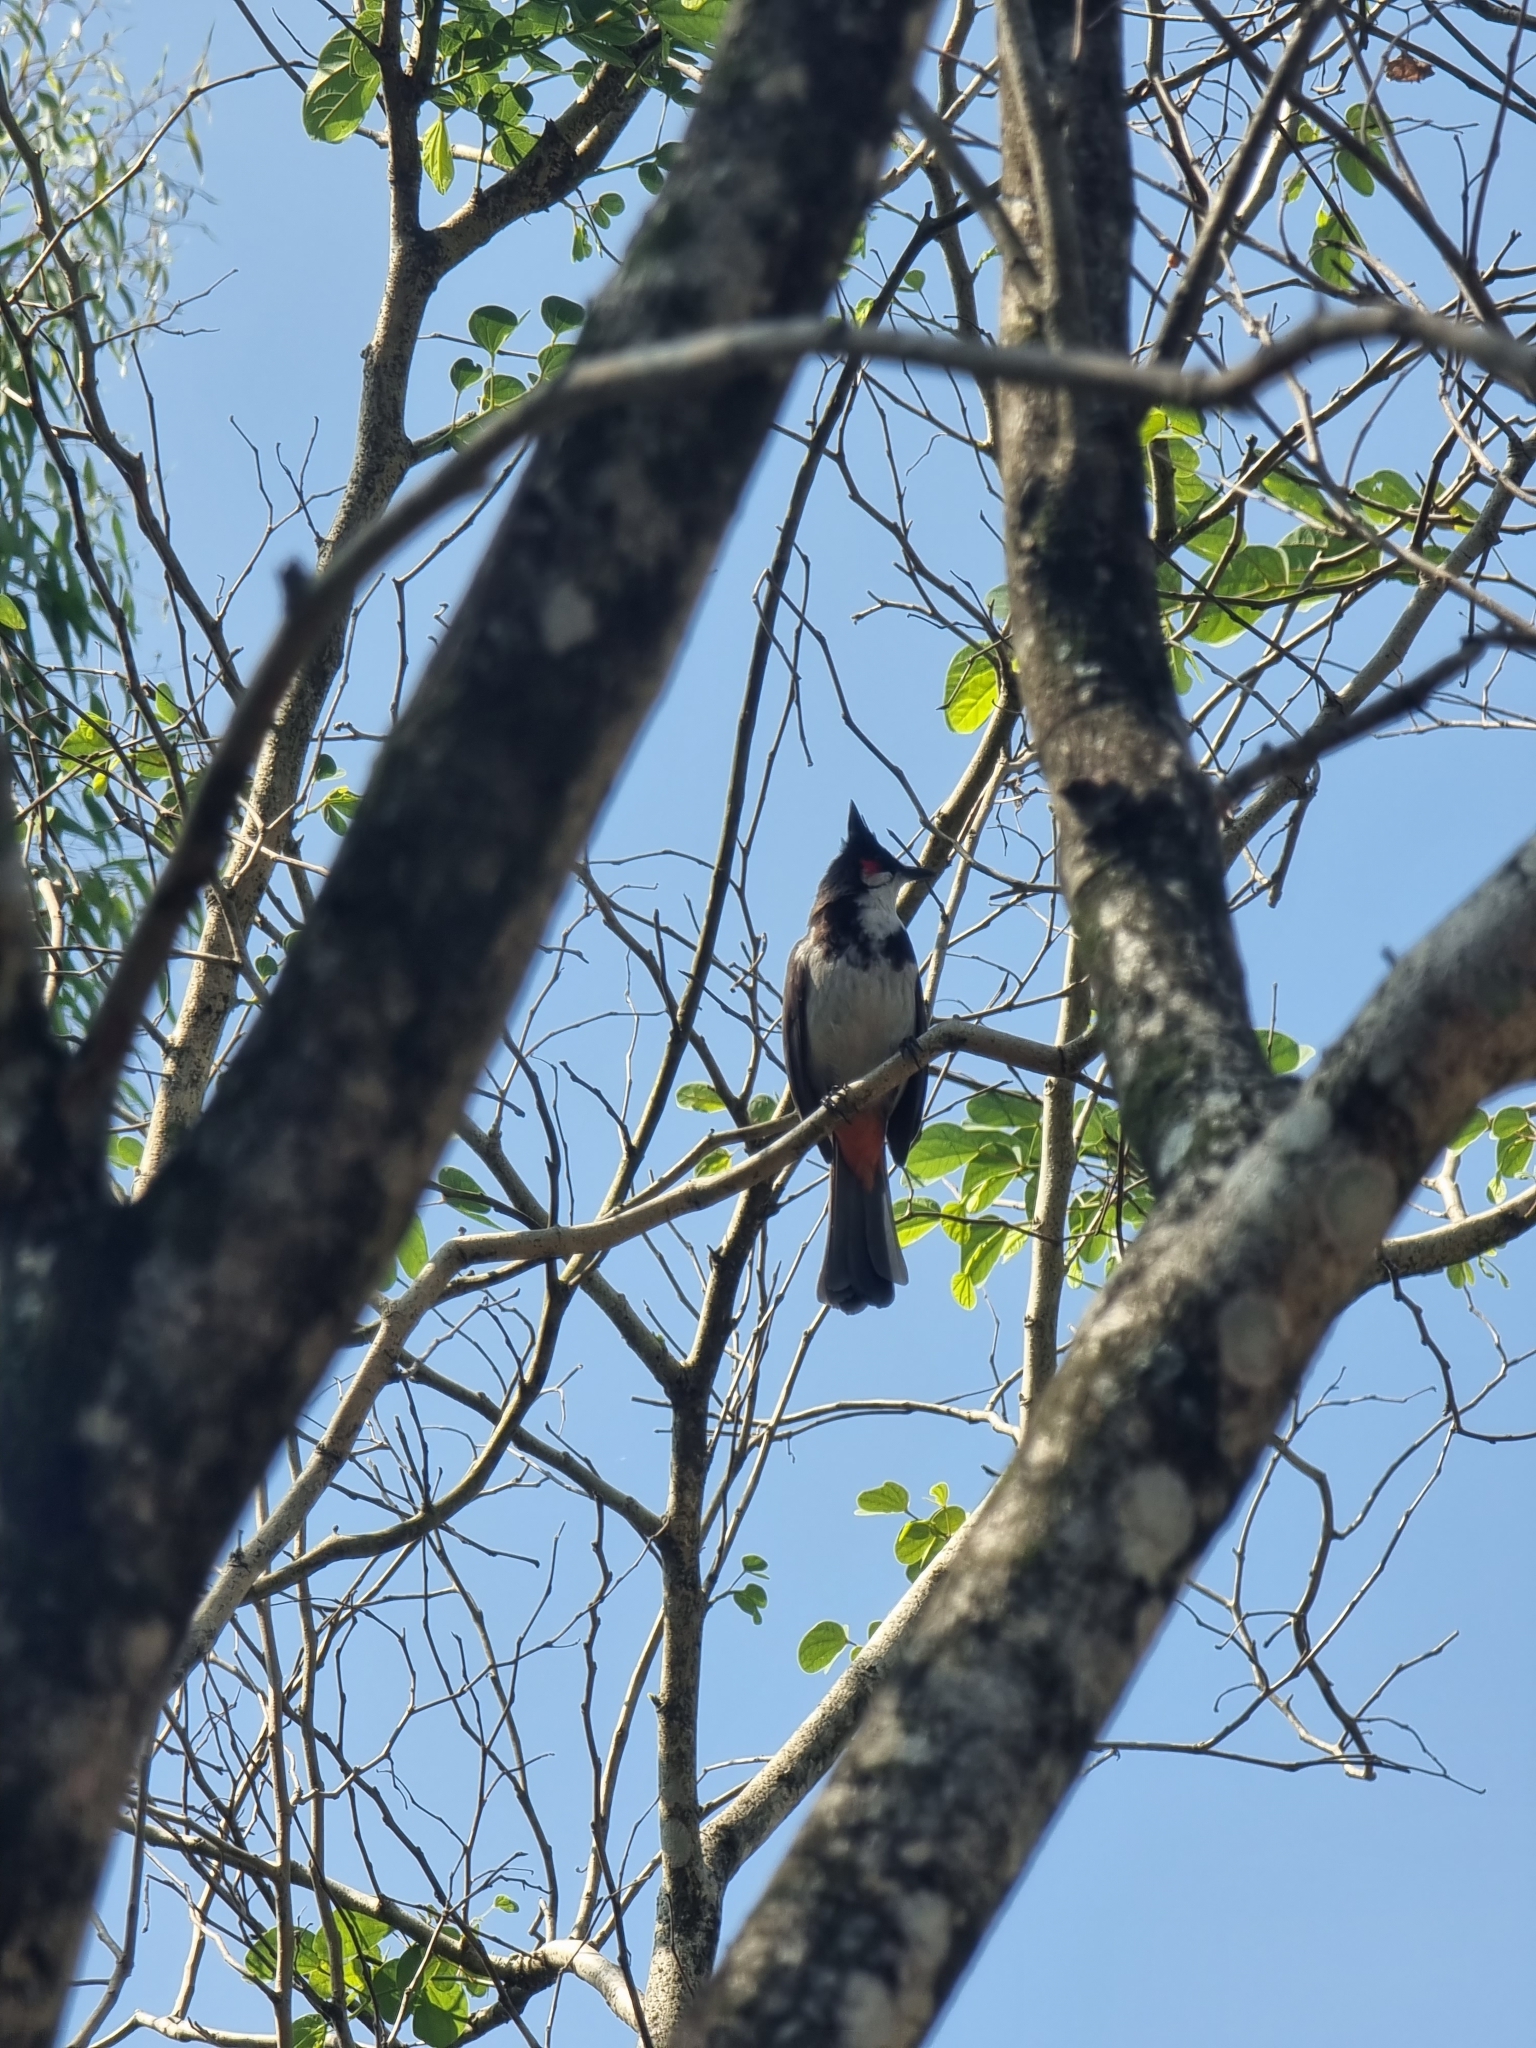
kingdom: Animalia
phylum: Chordata
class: Aves
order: Passeriformes
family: Pycnonotidae
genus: Pycnonotus
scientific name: Pycnonotus jocosus
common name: Red-whiskered bulbul
